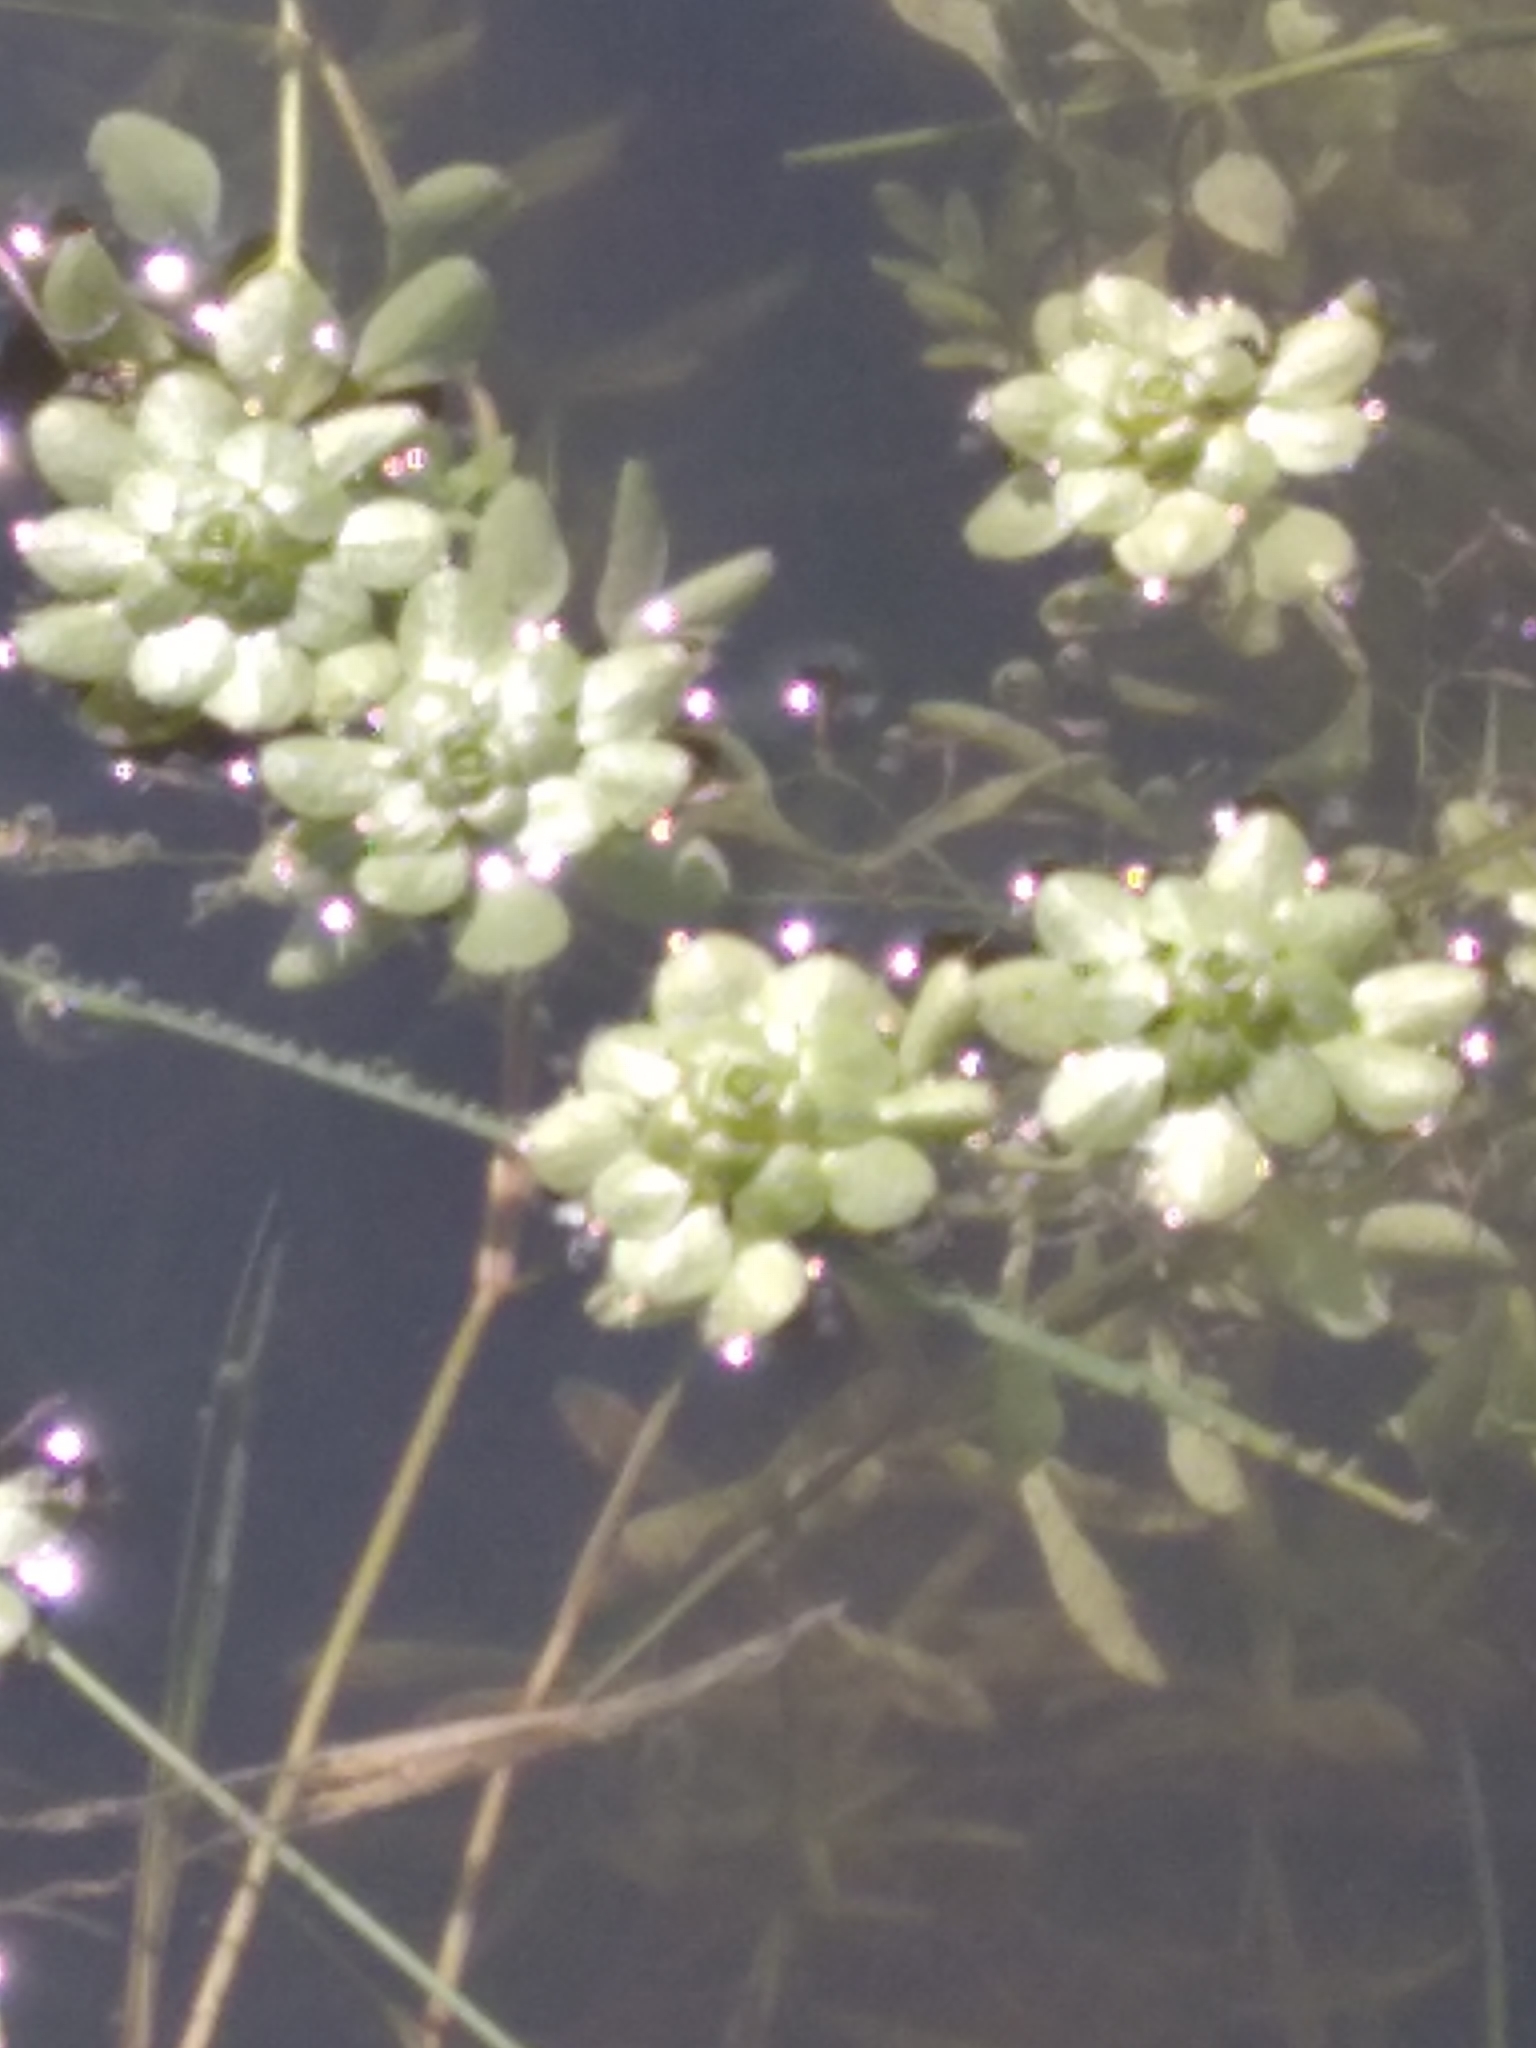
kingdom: Plantae
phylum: Tracheophyta
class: Magnoliopsida
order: Lamiales
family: Plantaginaceae
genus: Callitriche
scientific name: Callitriche
